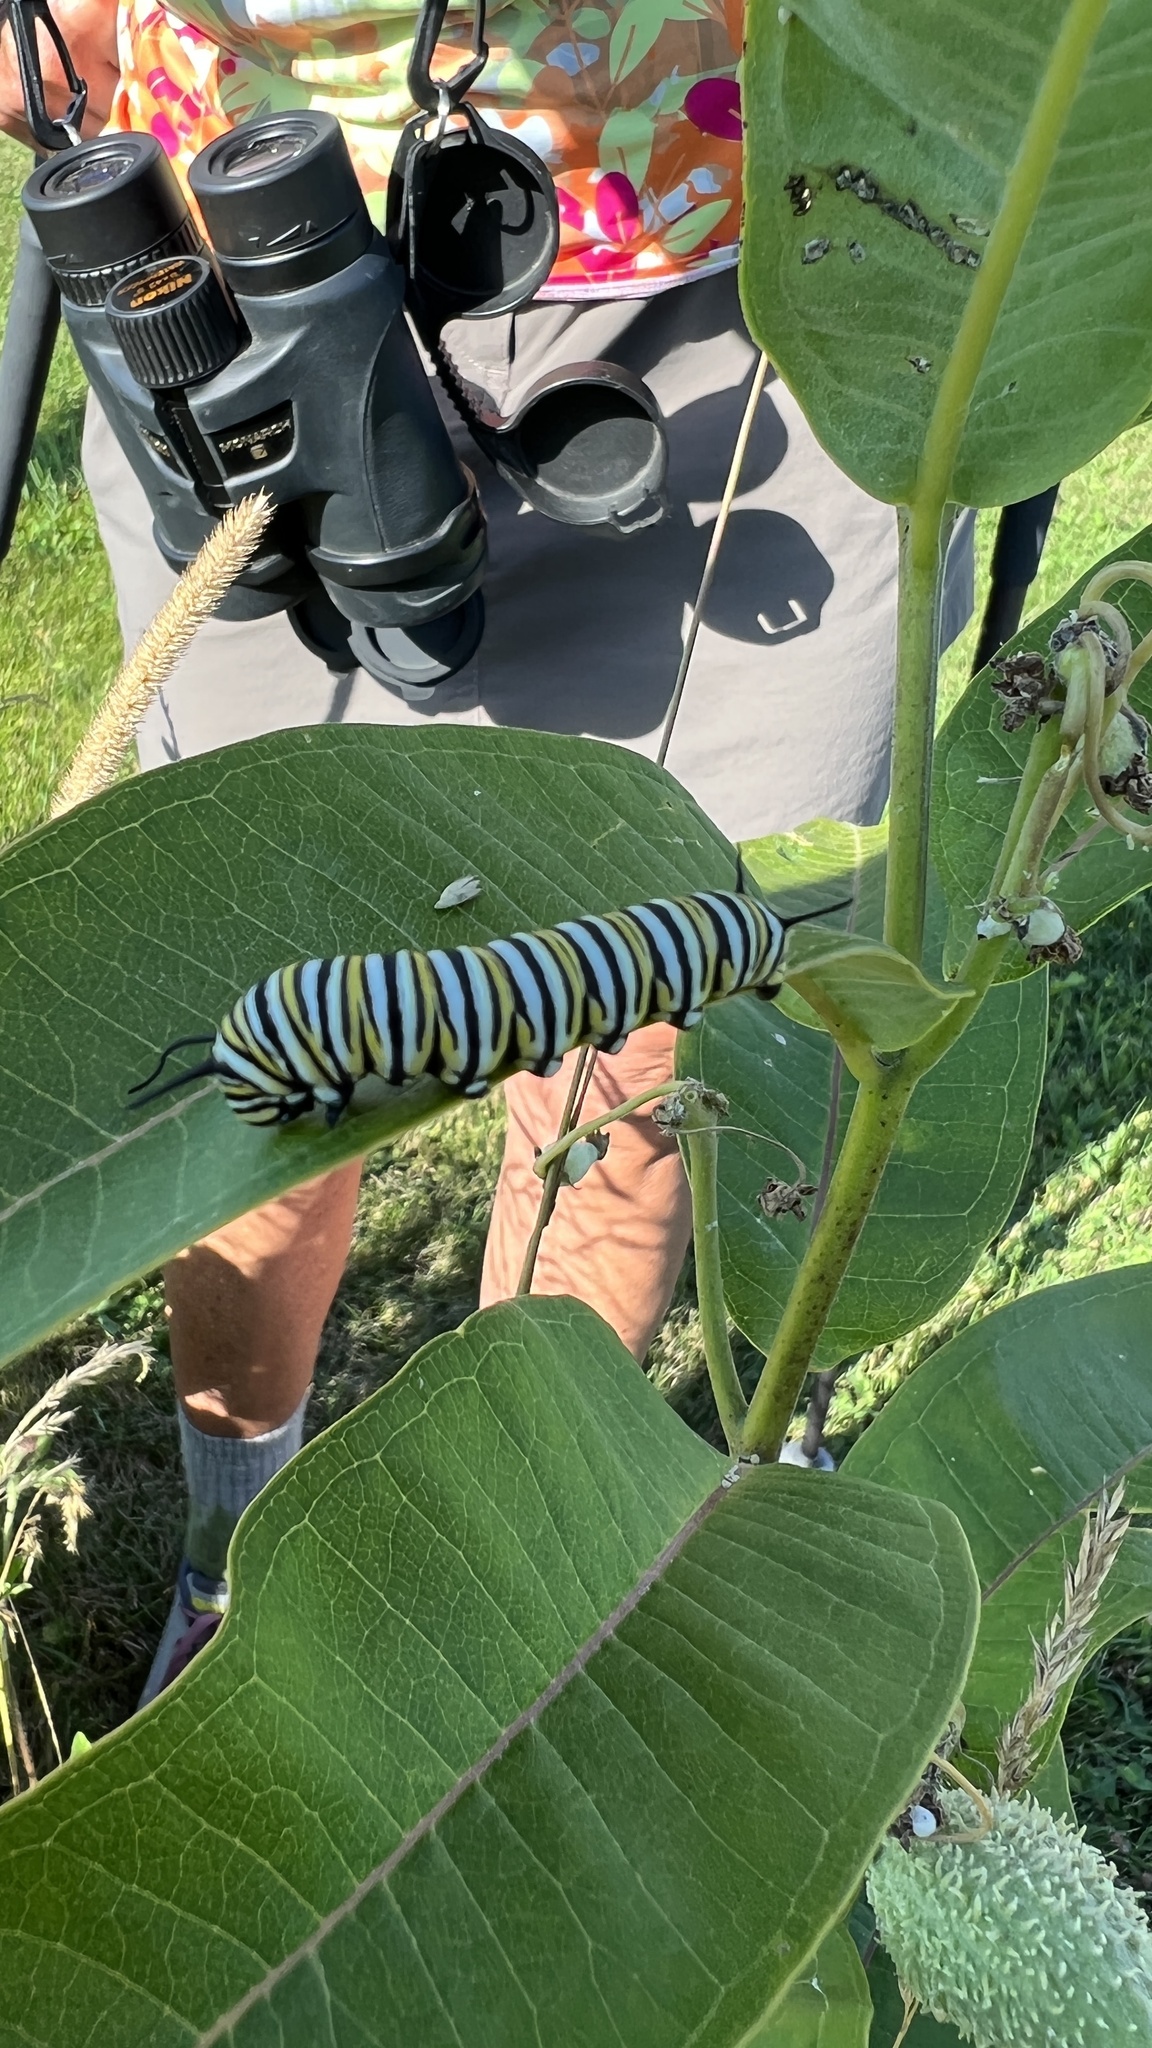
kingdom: Animalia
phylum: Arthropoda
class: Insecta
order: Lepidoptera
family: Nymphalidae
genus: Danaus
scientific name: Danaus plexippus
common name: Monarch
